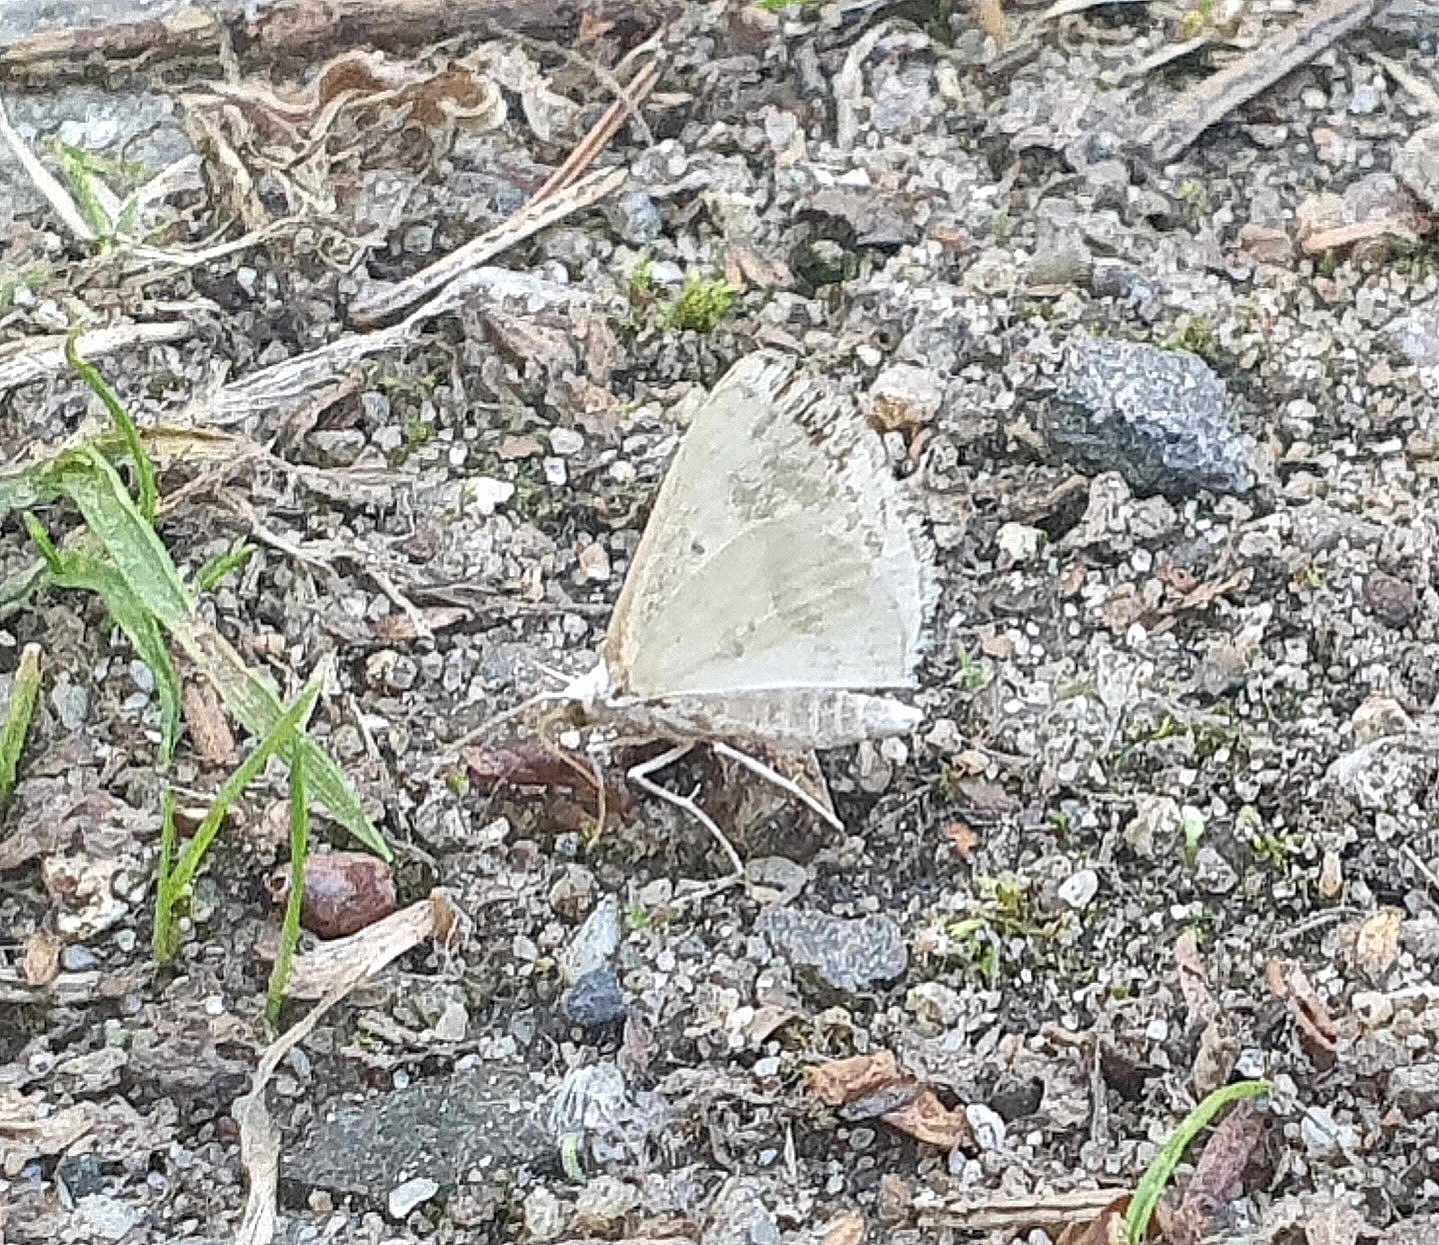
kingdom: Animalia
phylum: Arthropoda
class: Insecta
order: Lepidoptera
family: Geometridae
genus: Lomographa
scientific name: Lomographa temerata
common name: Clouded silver
